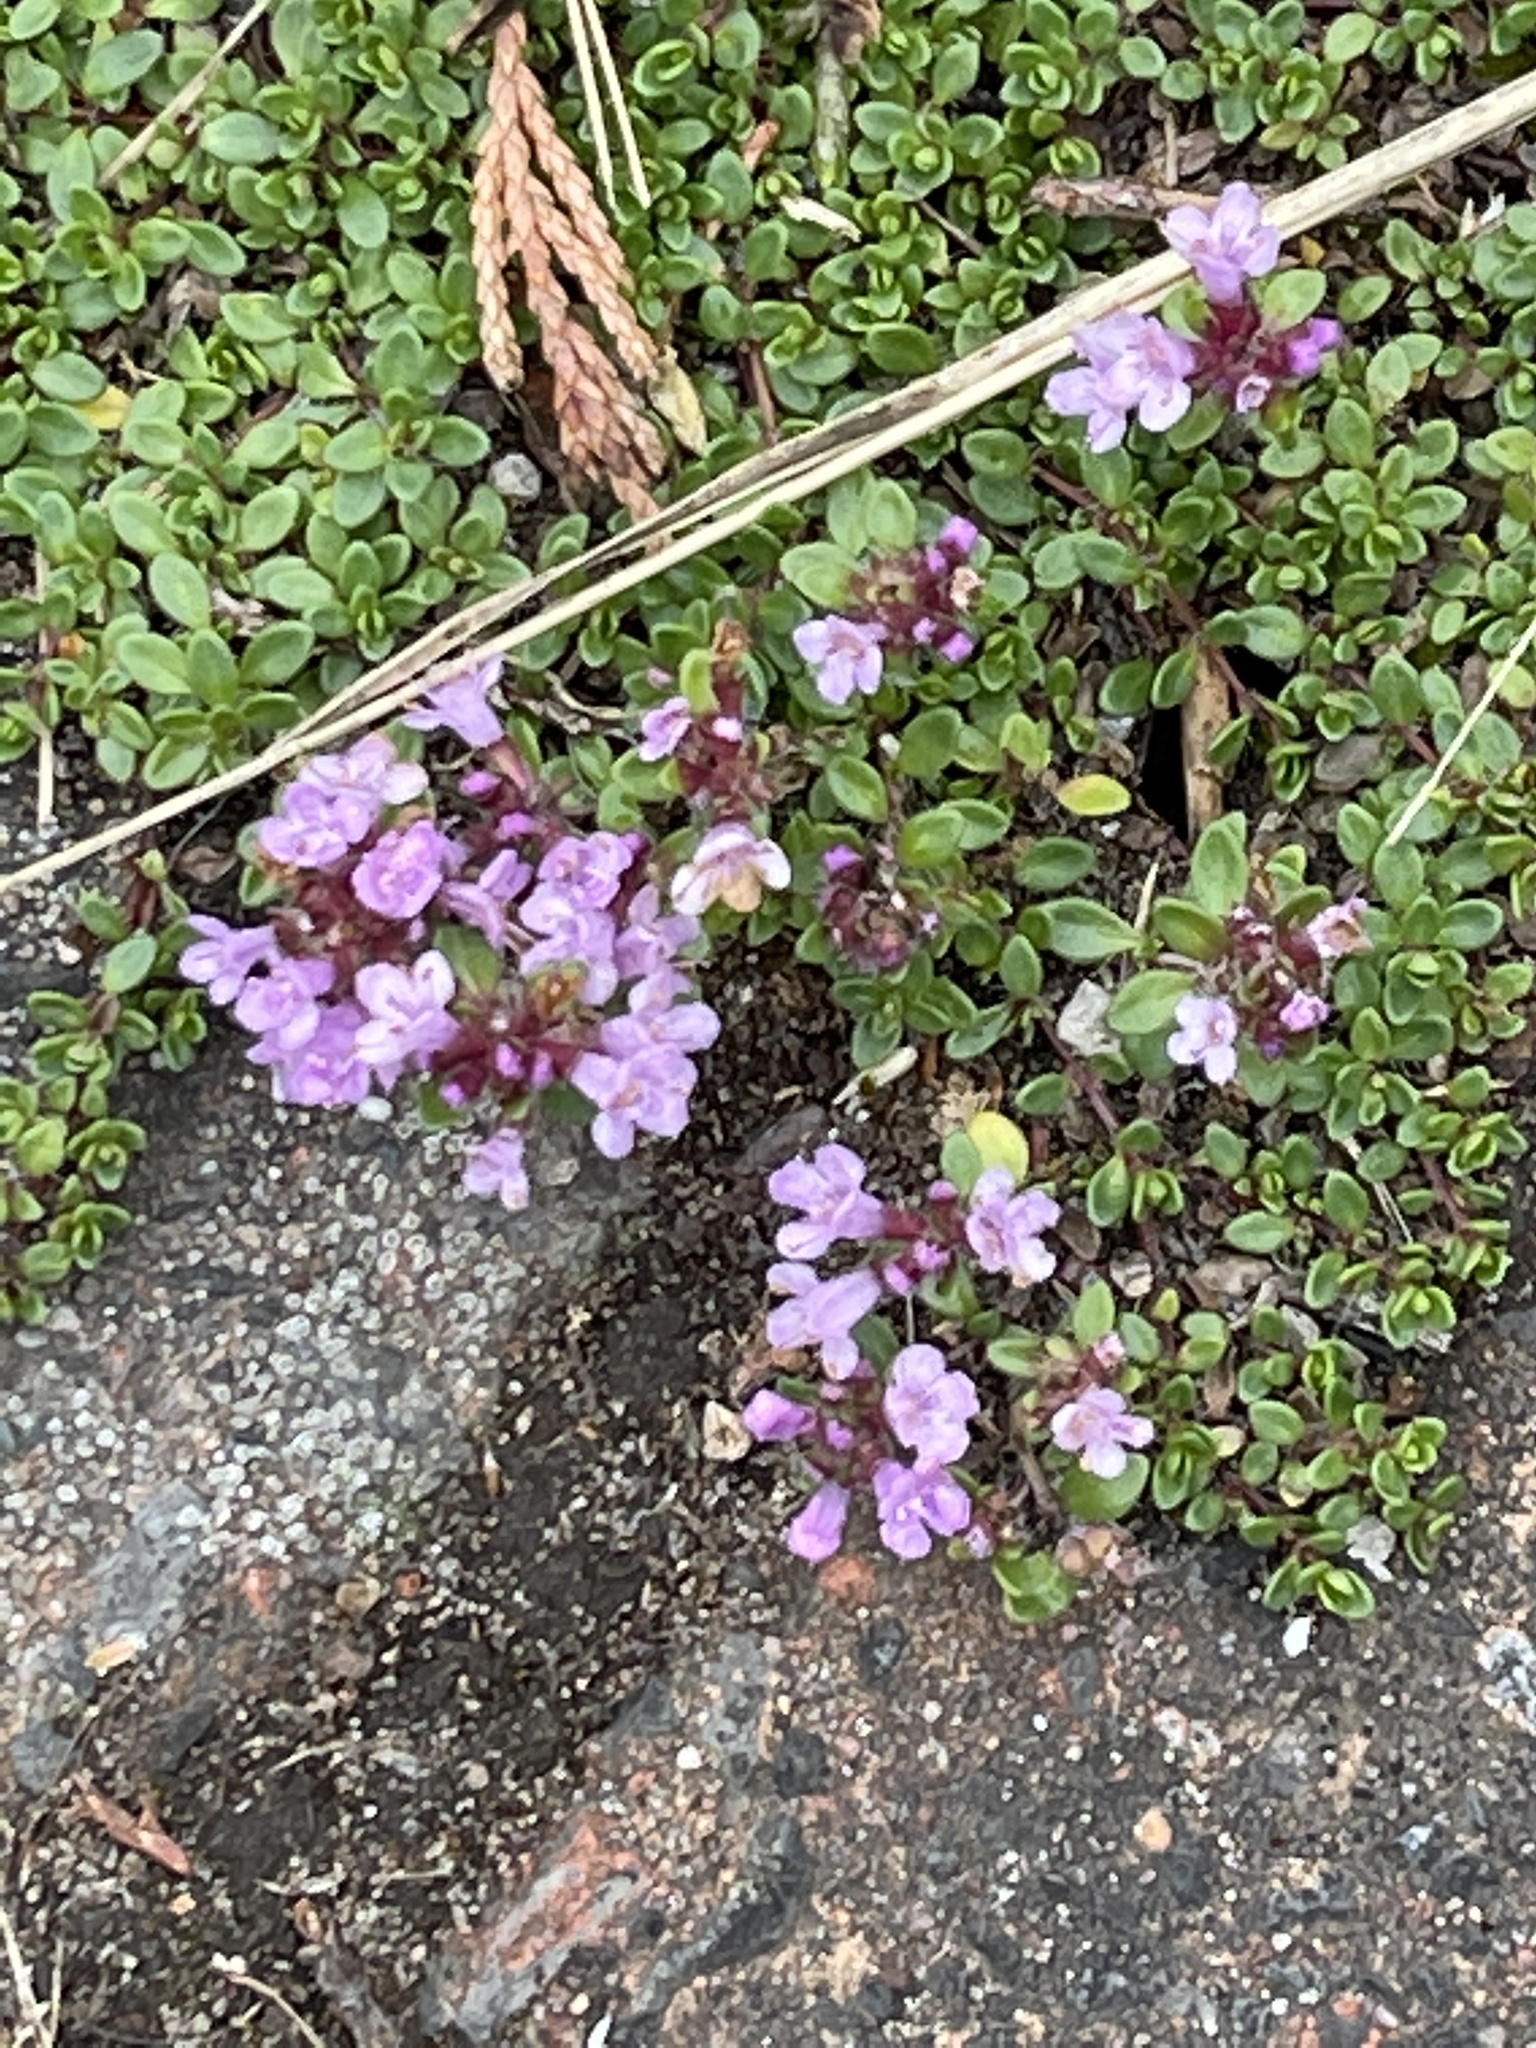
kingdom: Plantae
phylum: Tracheophyta
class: Magnoliopsida
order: Lamiales
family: Lamiaceae
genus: Thymus
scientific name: Thymus praecox
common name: Wild thyme
